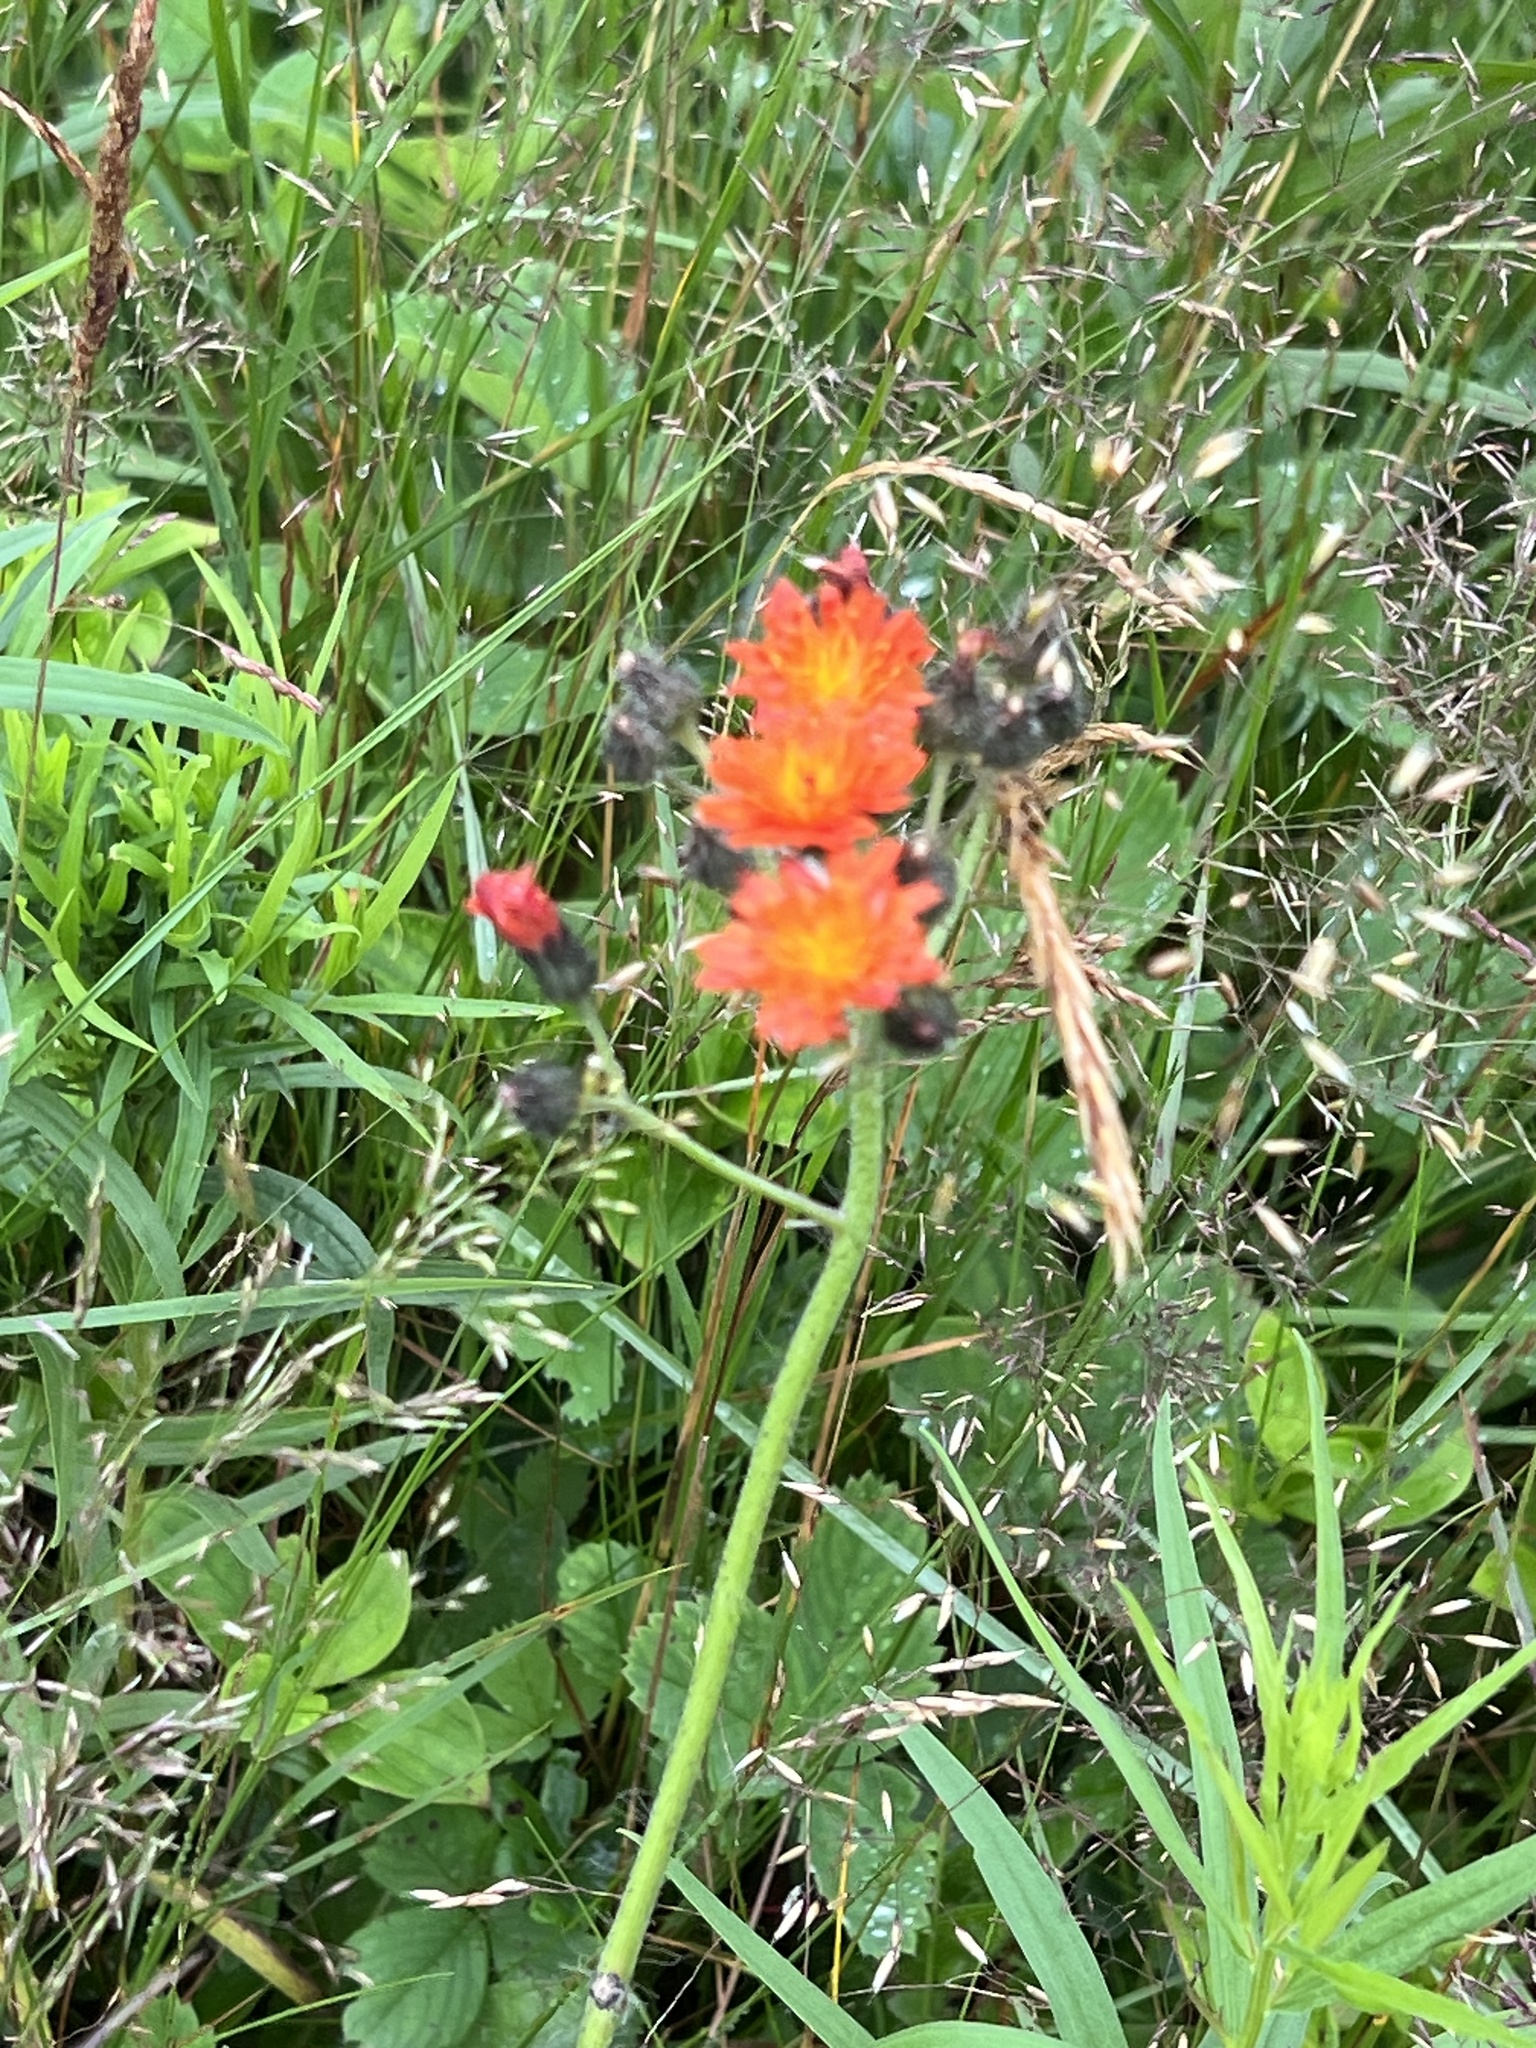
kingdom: Plantae
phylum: Tracheophyta
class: Magnoliopsida
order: Asterales
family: Asteraceae
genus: Pilosella
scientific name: Pilosella aurantiaca
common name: Fox-and-cubs
